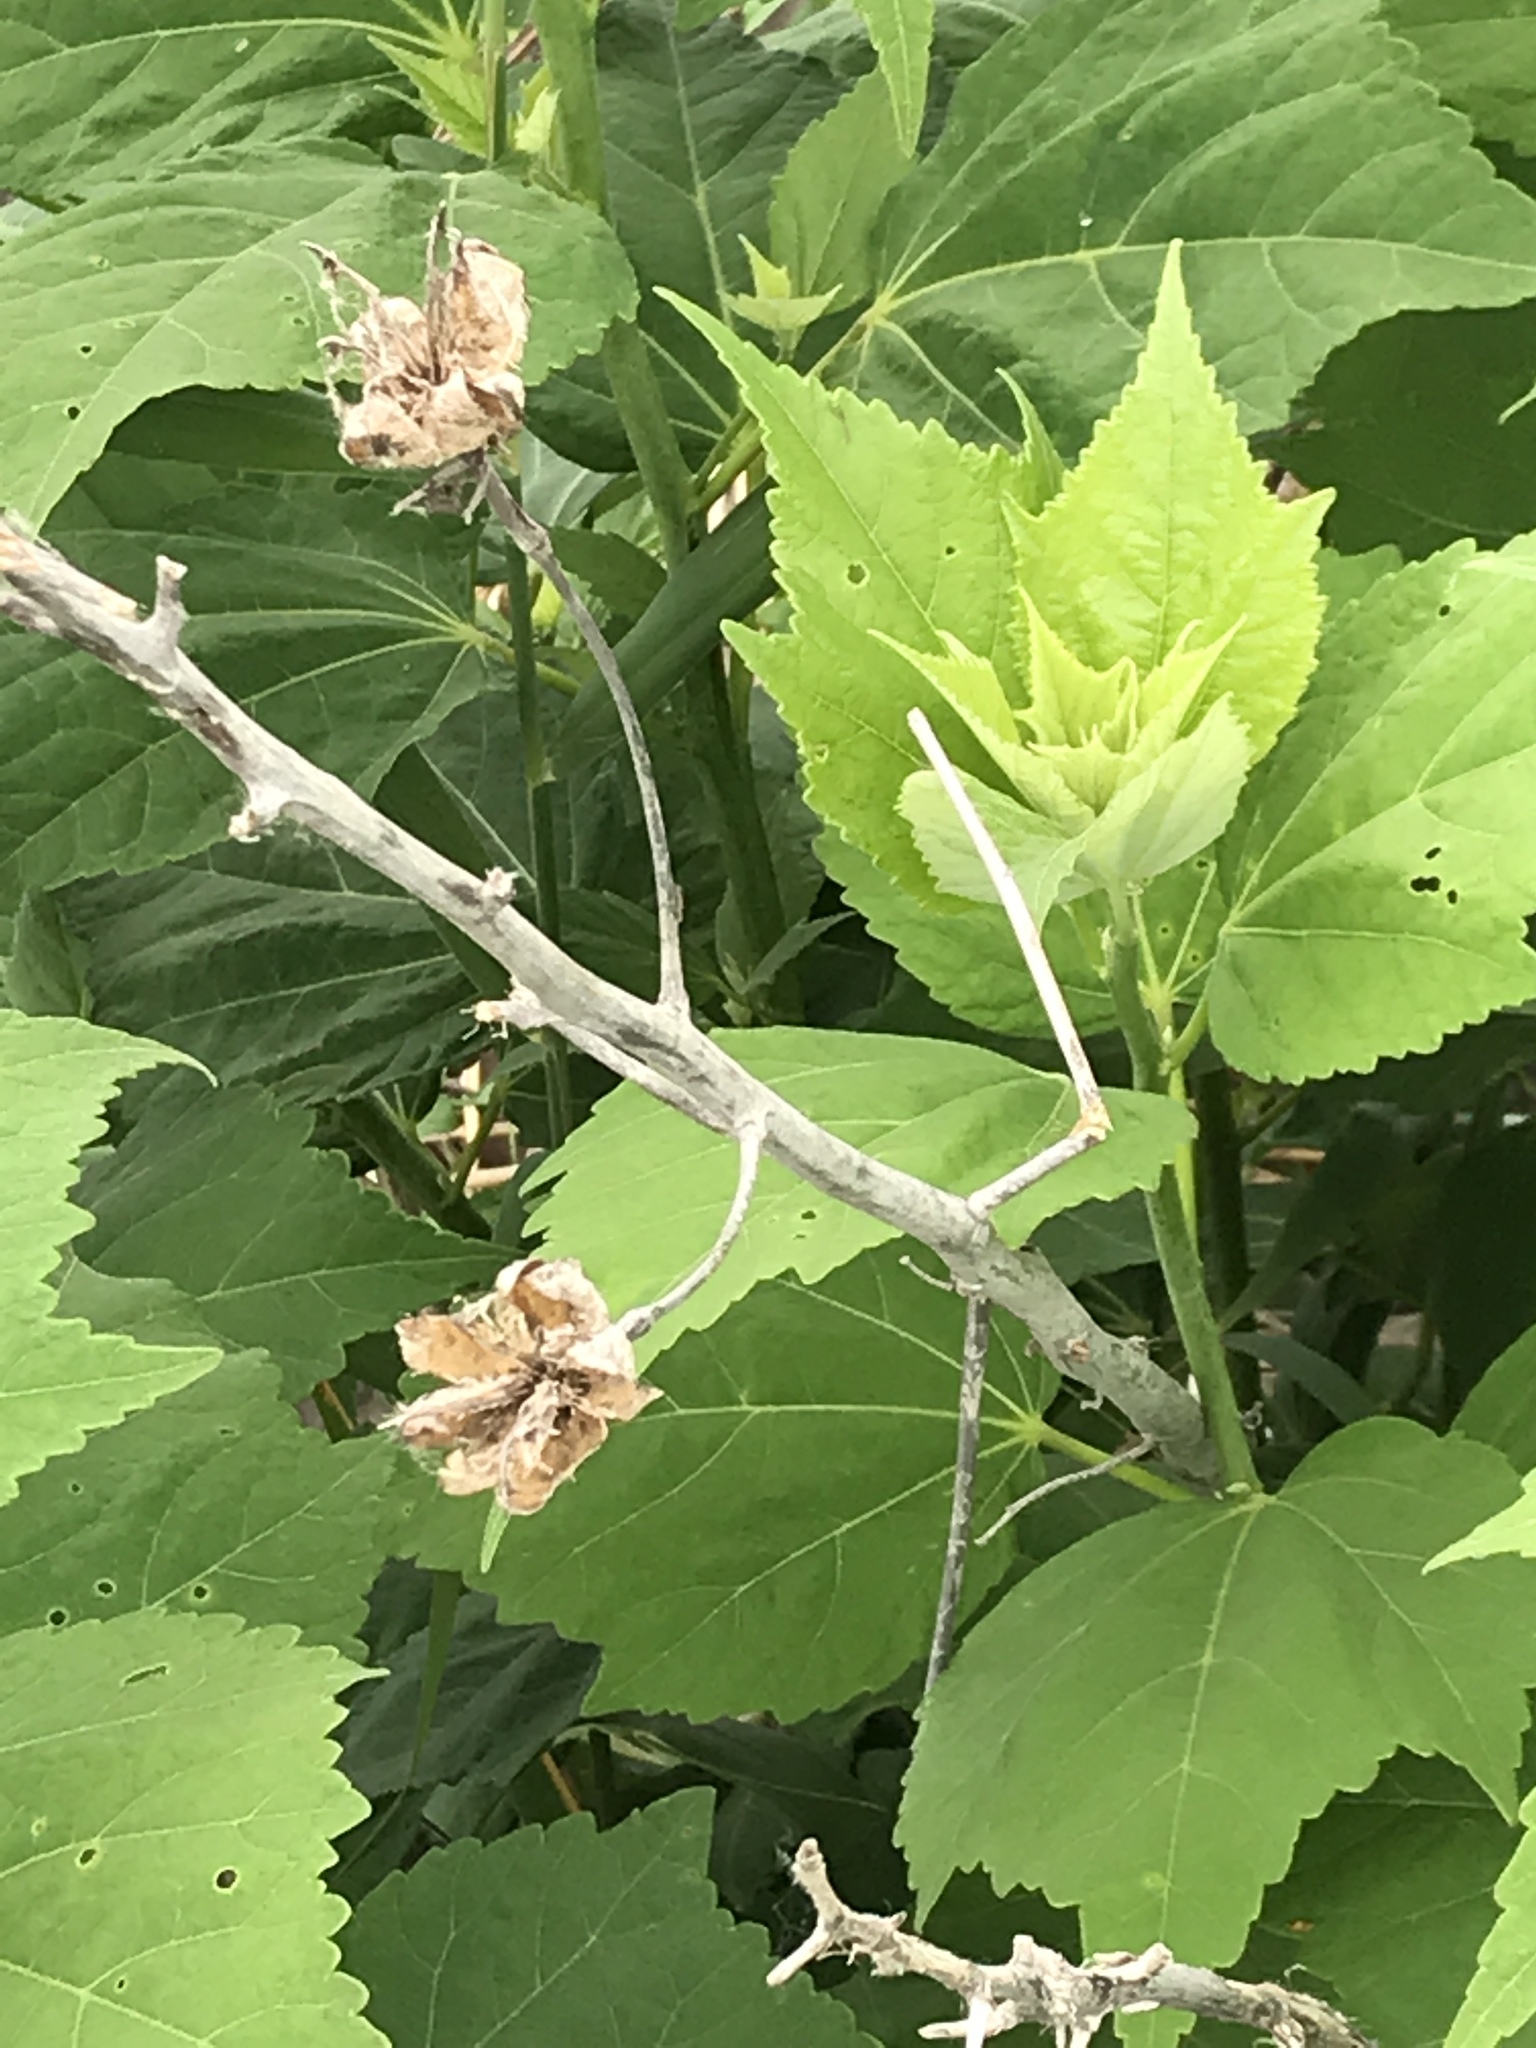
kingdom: Plantae
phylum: Tracheophyta
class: Magnoliopsida
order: Malvales
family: Malvaceae
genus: Hibiscus
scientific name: Hibiscus moscheutos
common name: Common rose-mallow
